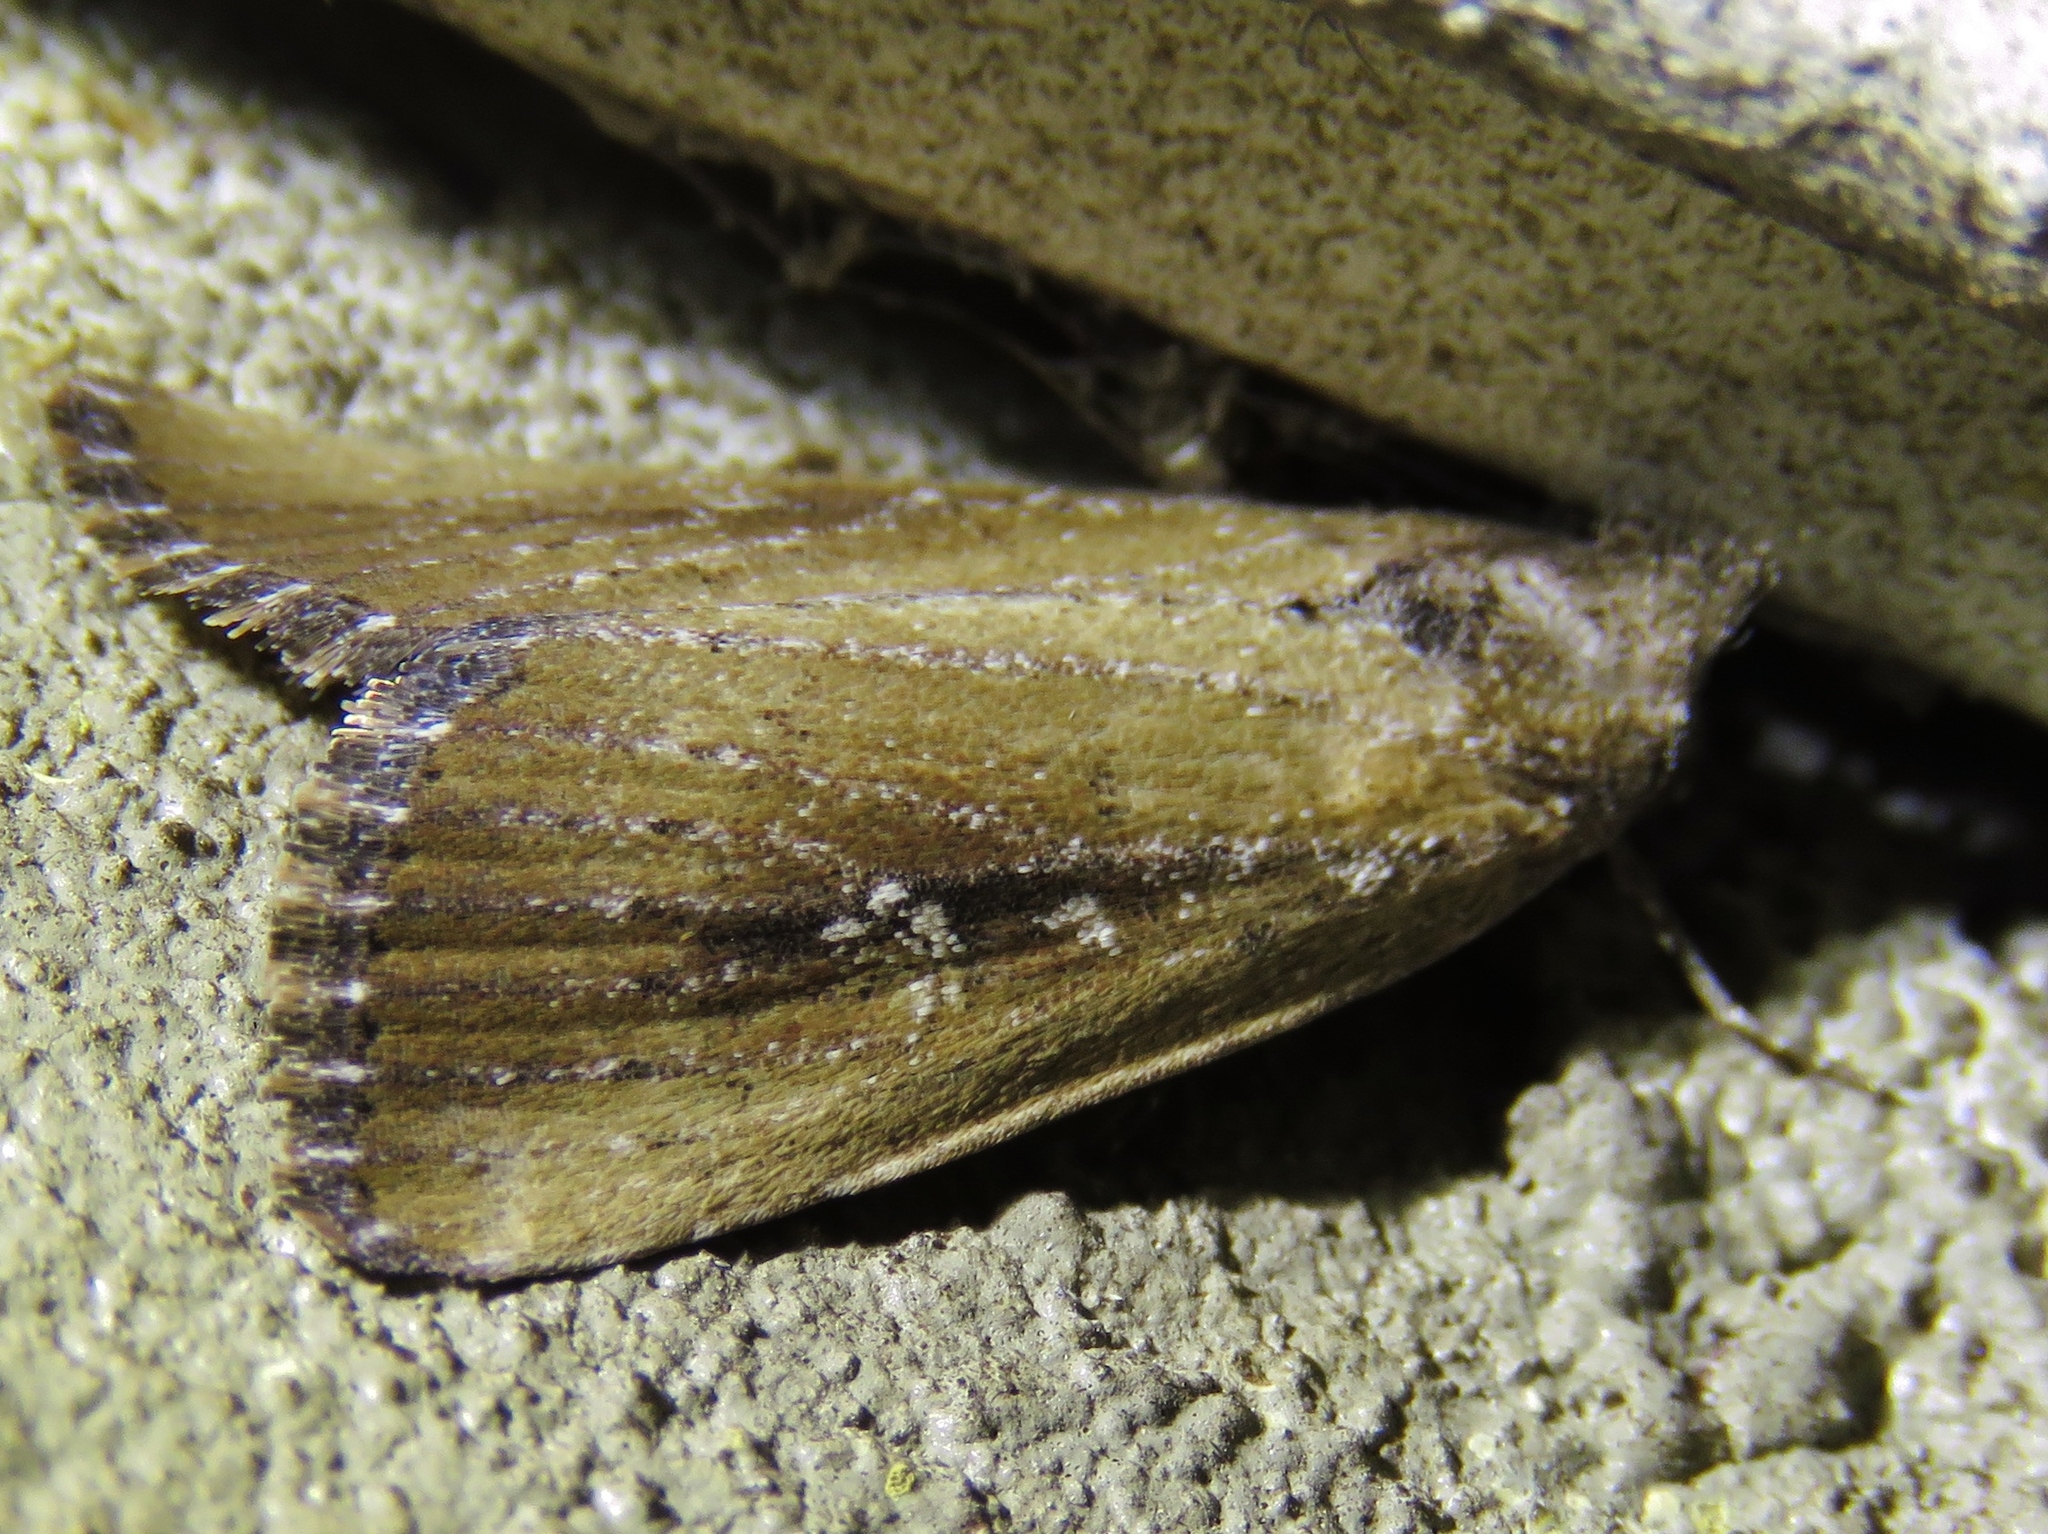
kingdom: Animalia
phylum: Arthropoda
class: Insecta
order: Lepidoptera
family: Noctuidae
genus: Condica
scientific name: Condica videns
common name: White-dotted groundling
